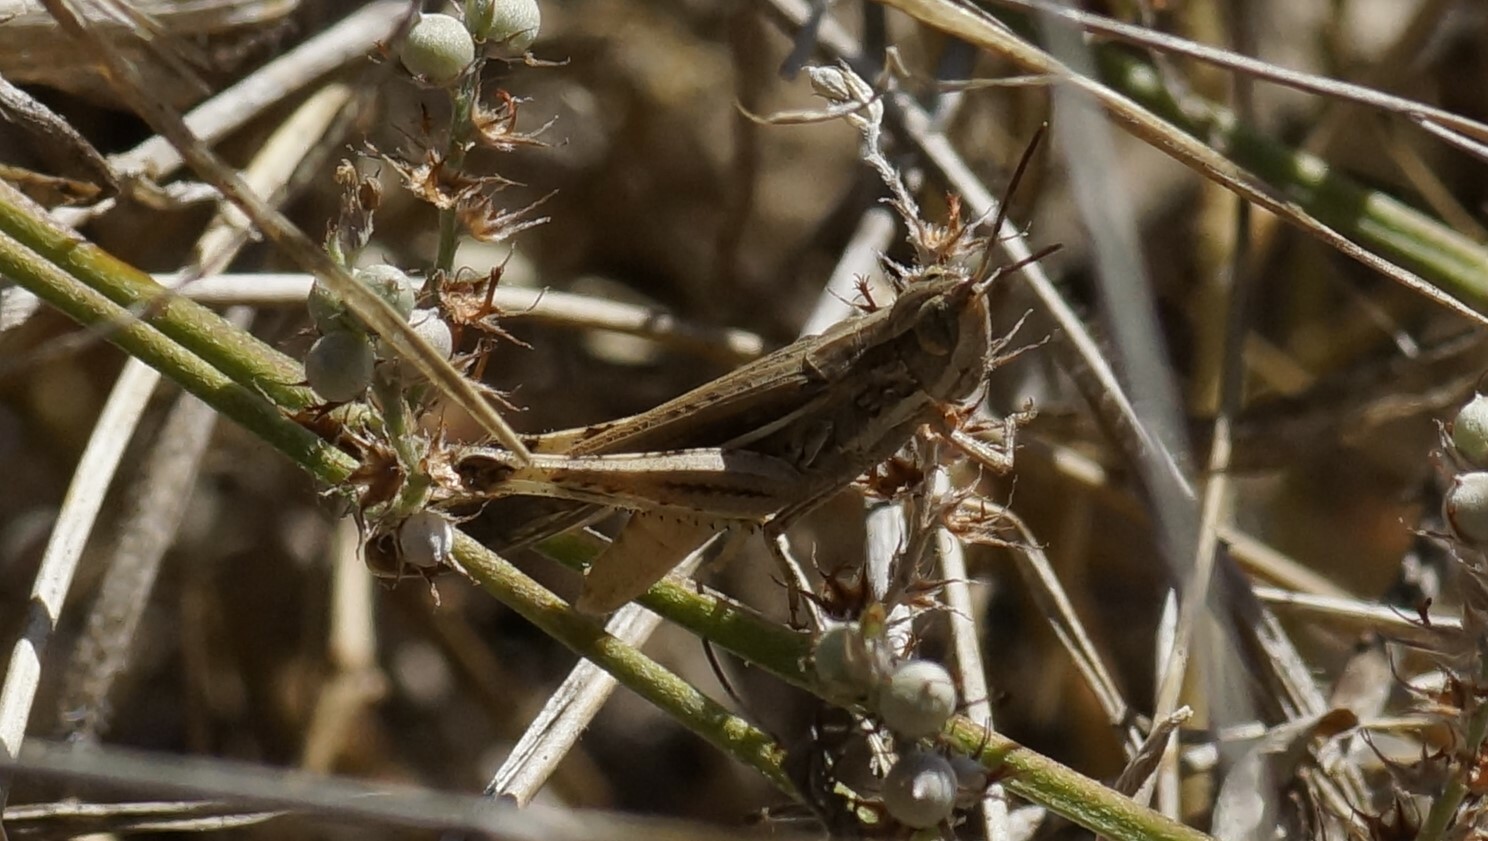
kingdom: Animalia
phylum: Arthropoda
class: Insecta
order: Orthoptera
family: Acrididae
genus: Aiolopus
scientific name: Aiolopus thalassinus
